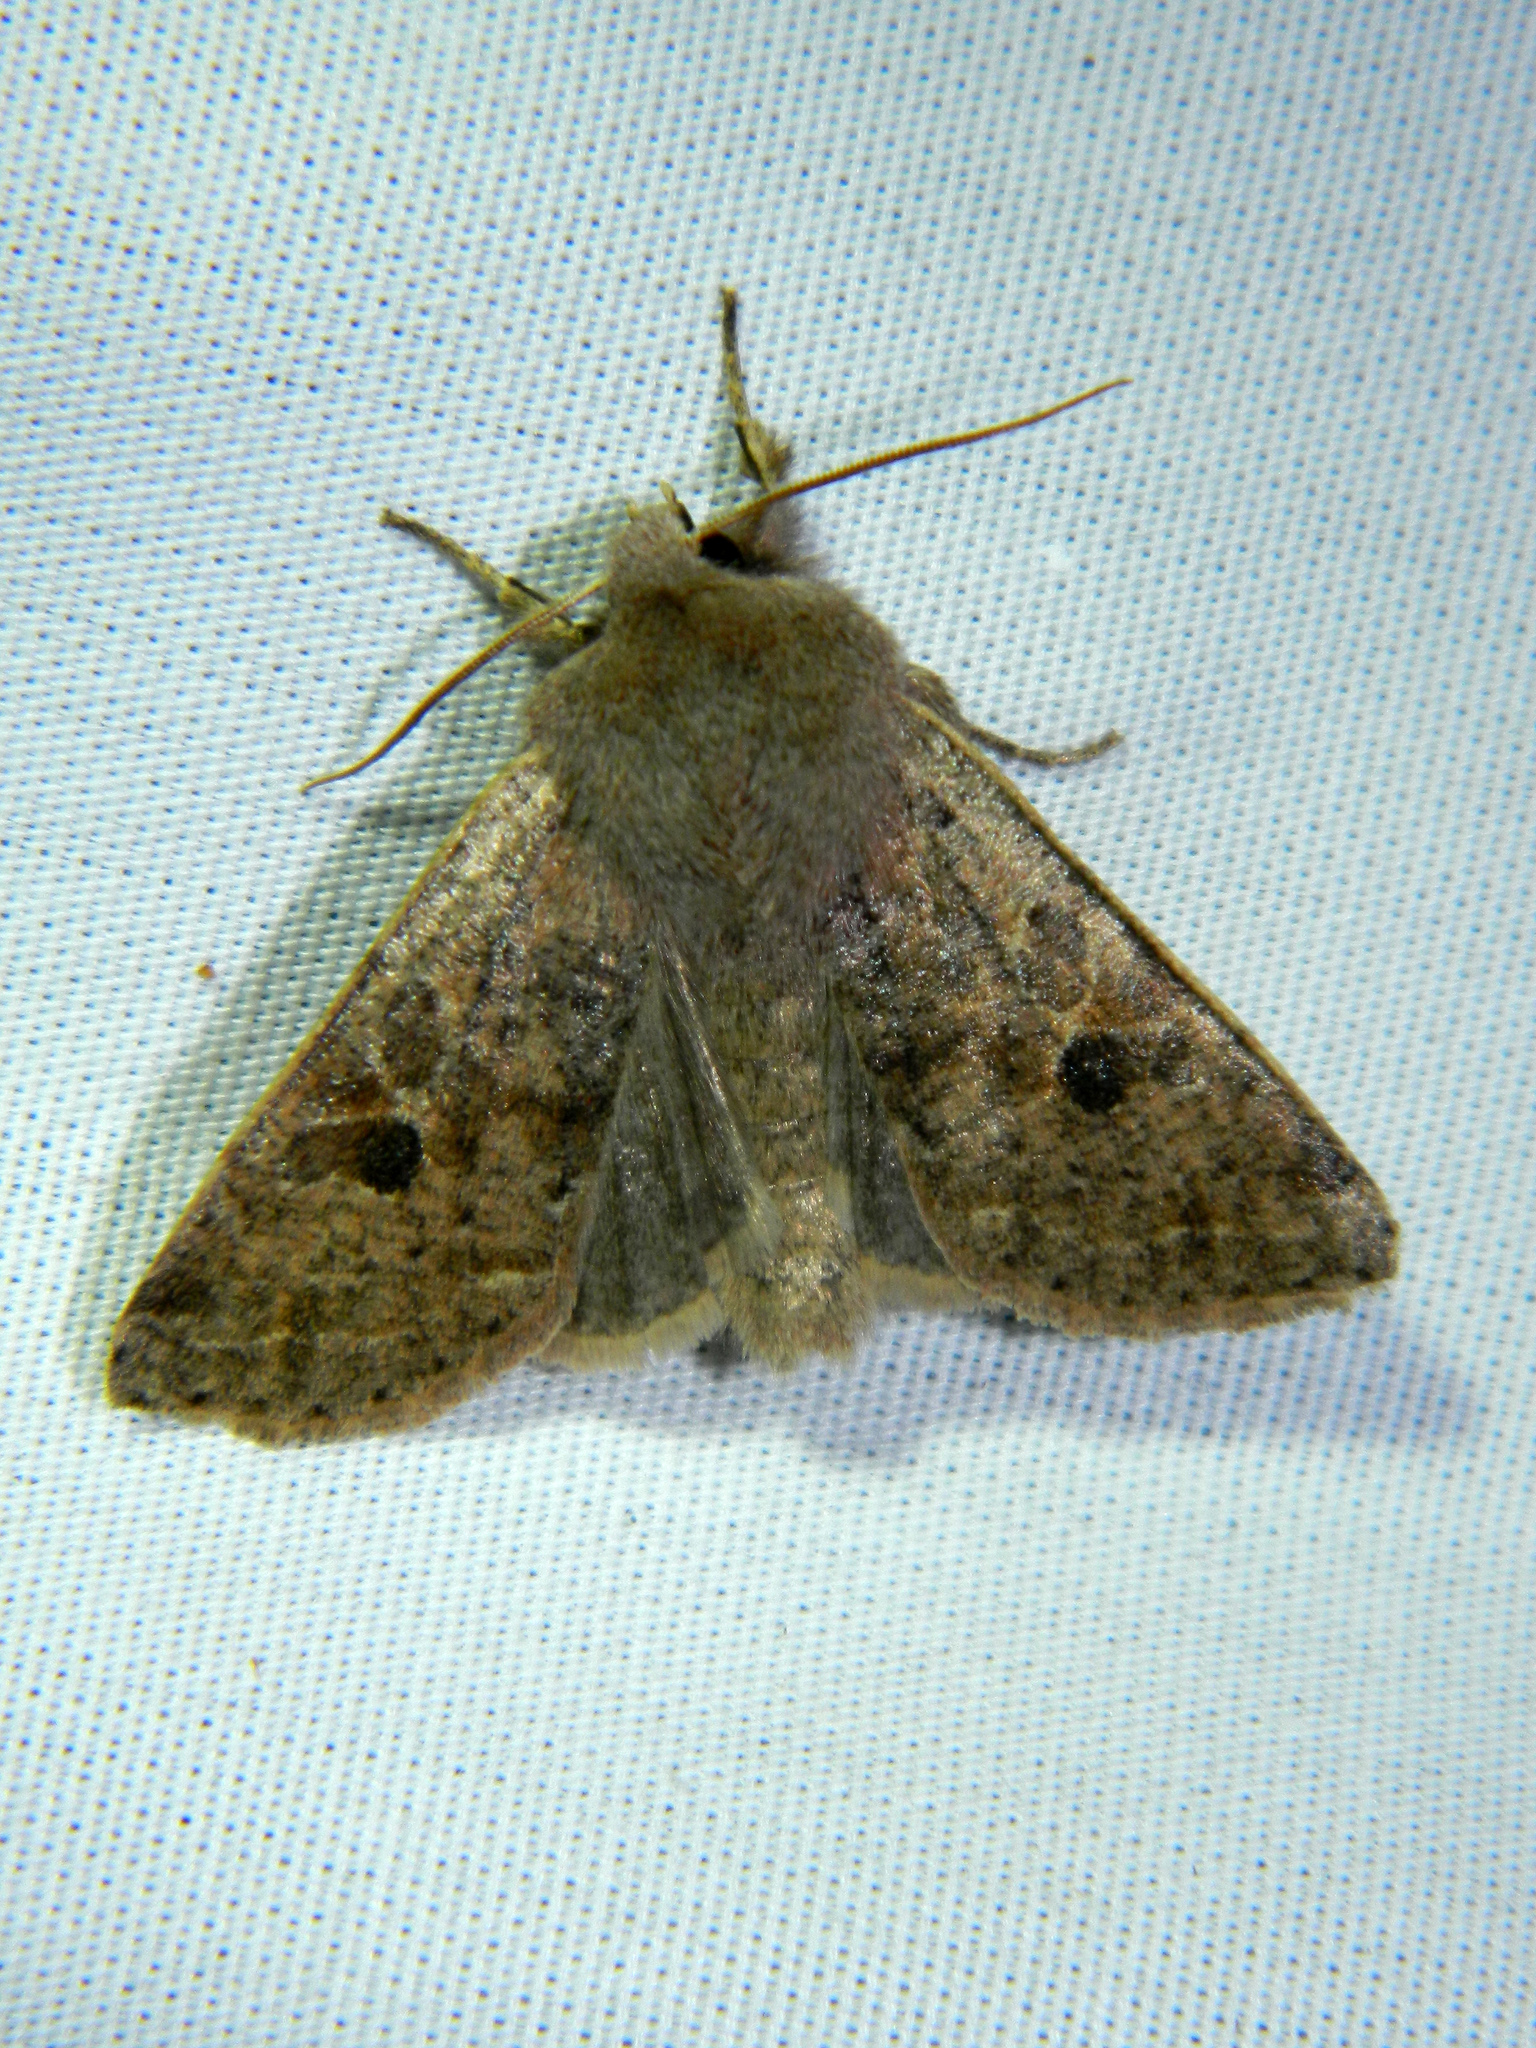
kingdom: Animalia
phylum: Arthropoda
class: Insecta
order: Lepidoptera
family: Noctuidae
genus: Orthosia
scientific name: Orthosia hibisci
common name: Green fruitworm
